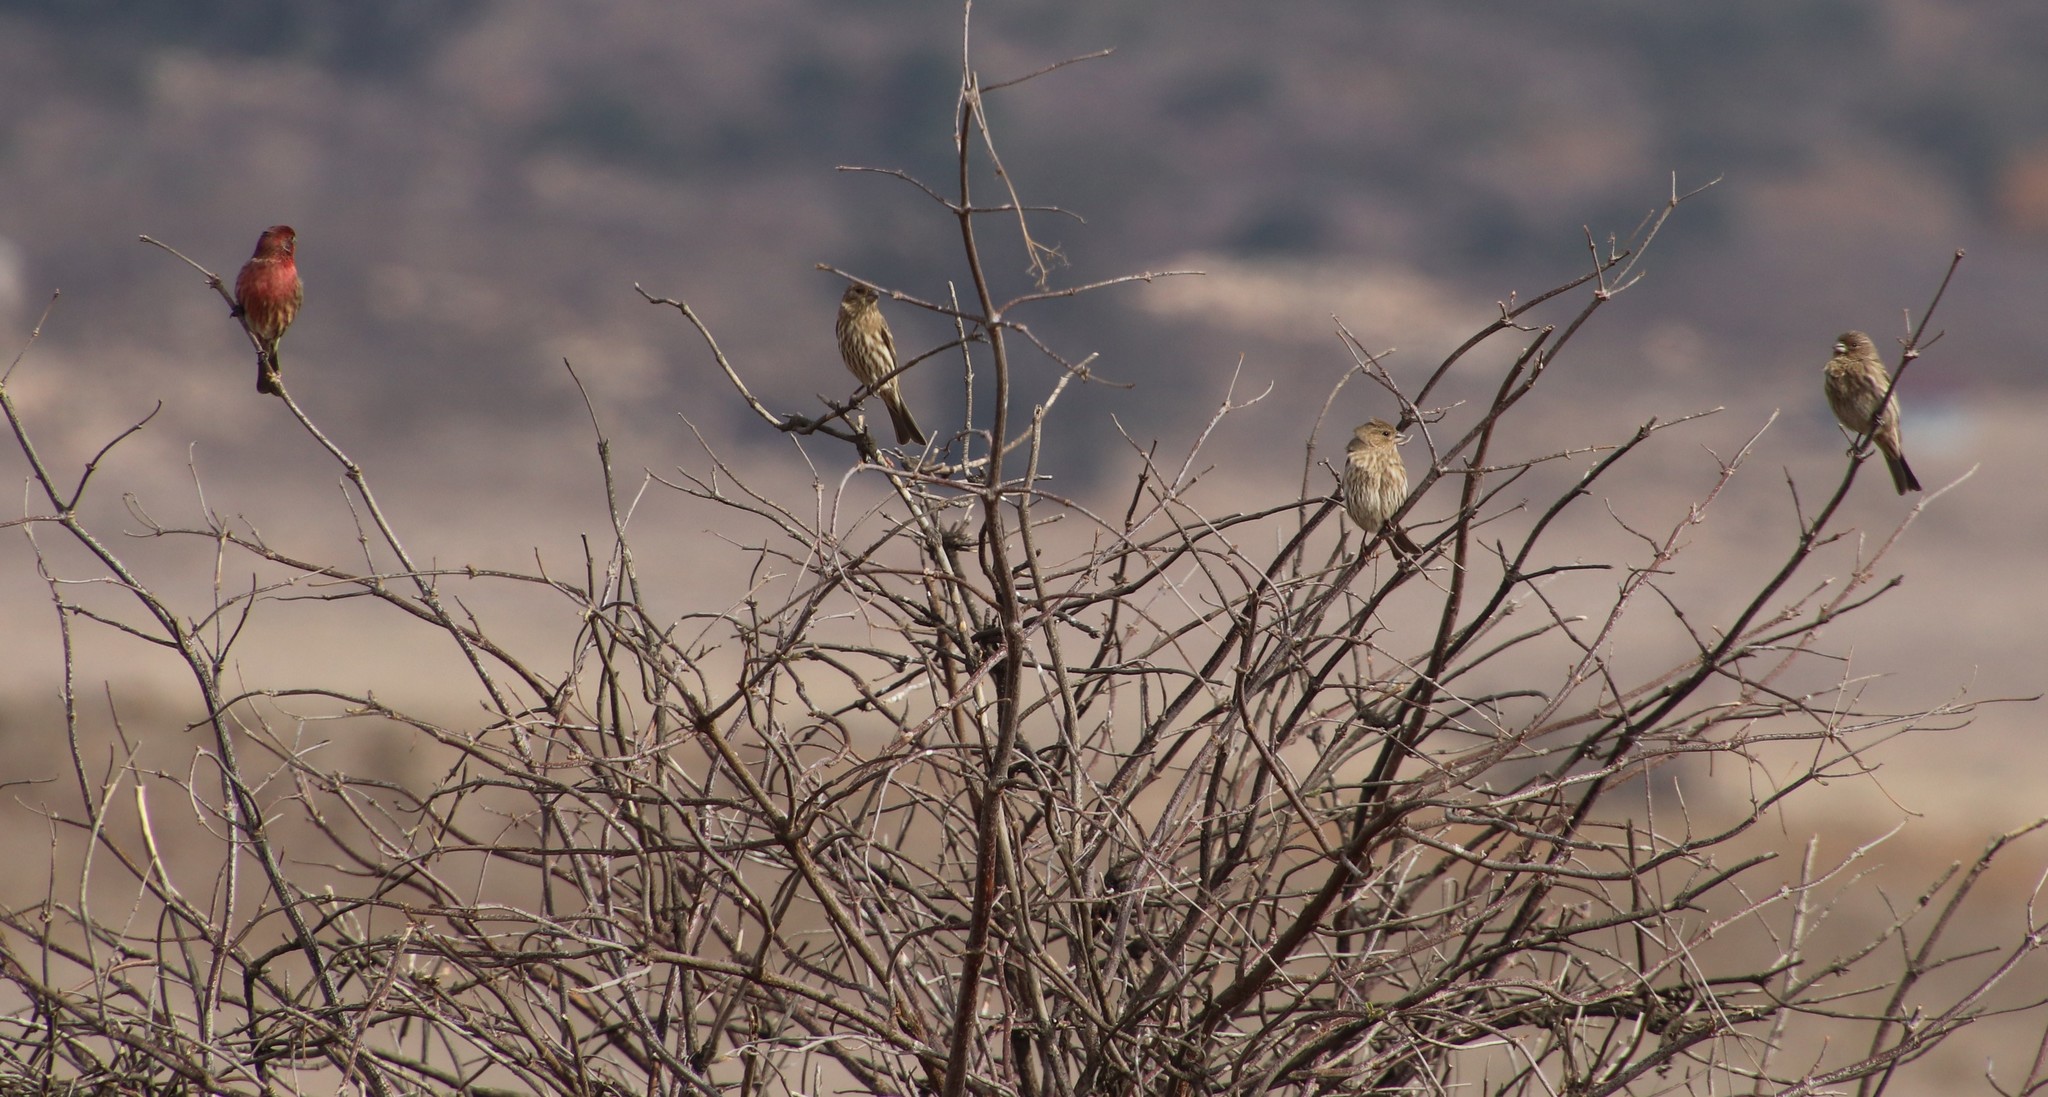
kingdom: Animalia
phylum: Chordata
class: Aves
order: Passeriformes
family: Fringillidae
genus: Haemorhous
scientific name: Haemorhous mexicanus
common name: House finch
